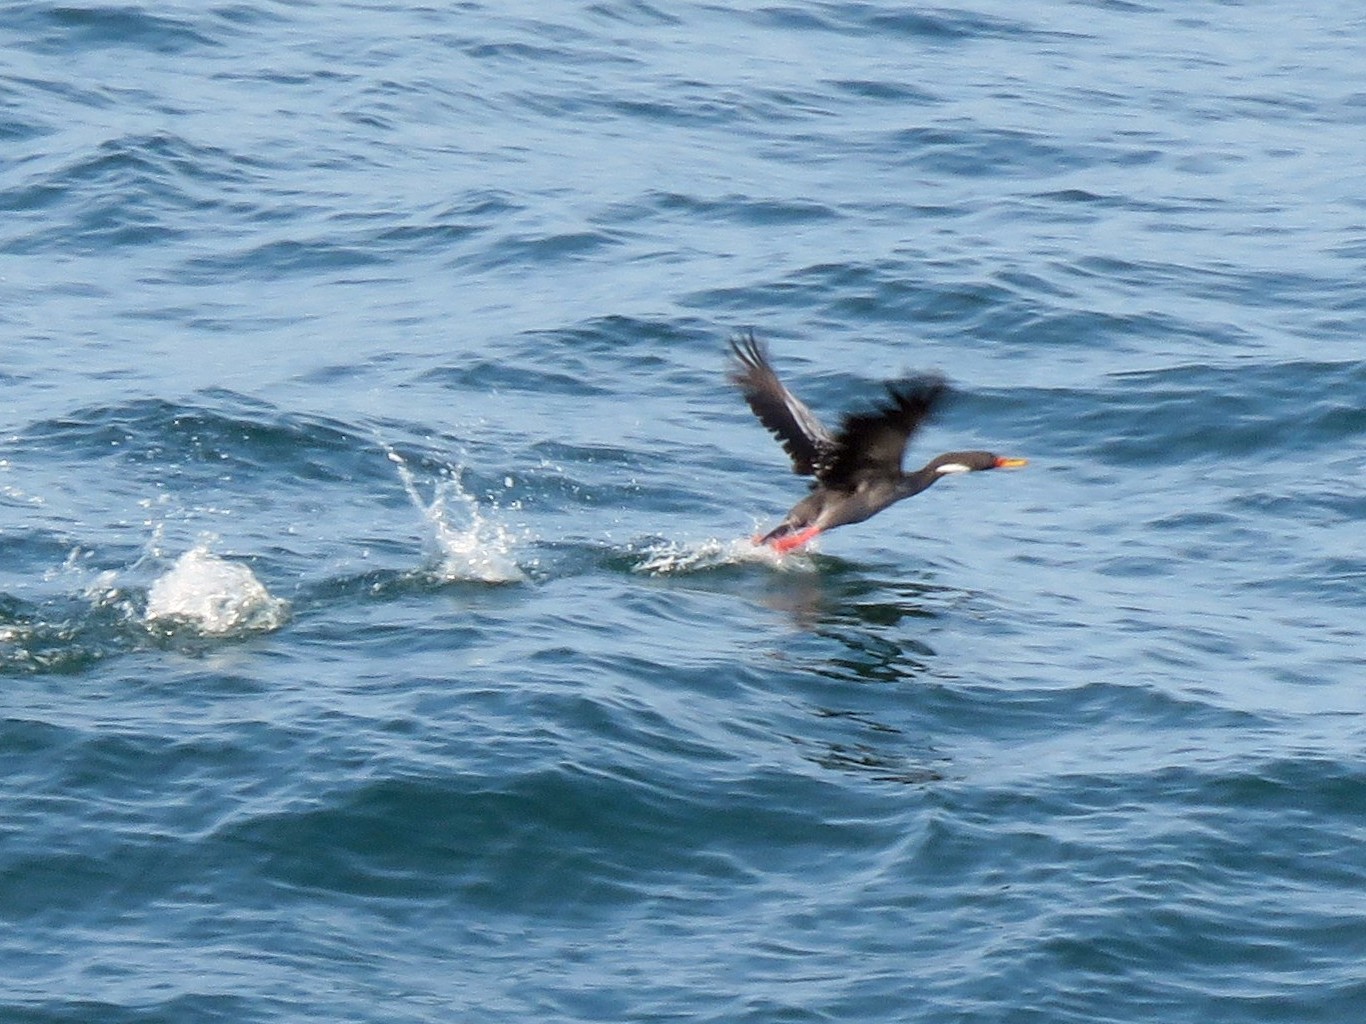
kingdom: Animalia
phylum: Chordata
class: Aves
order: Suliformes
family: Phalacrocoracidae
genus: Phalacrocorax
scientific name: Phalacrocorax gaimardi
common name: Red-legged cormorant
